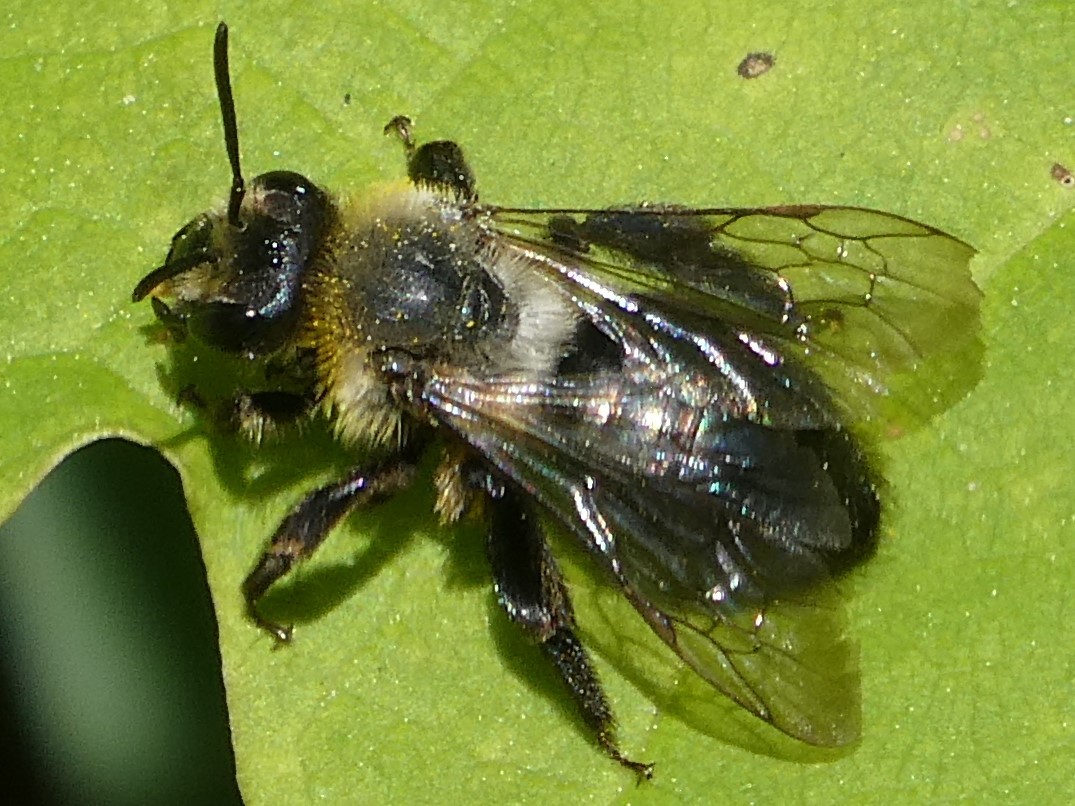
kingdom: Animalia
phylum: Arthropoda
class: Insecta
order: Hymenoptera
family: Andrenidae
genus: Andrena
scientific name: Andrena vicina
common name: Neighborly mining bee
